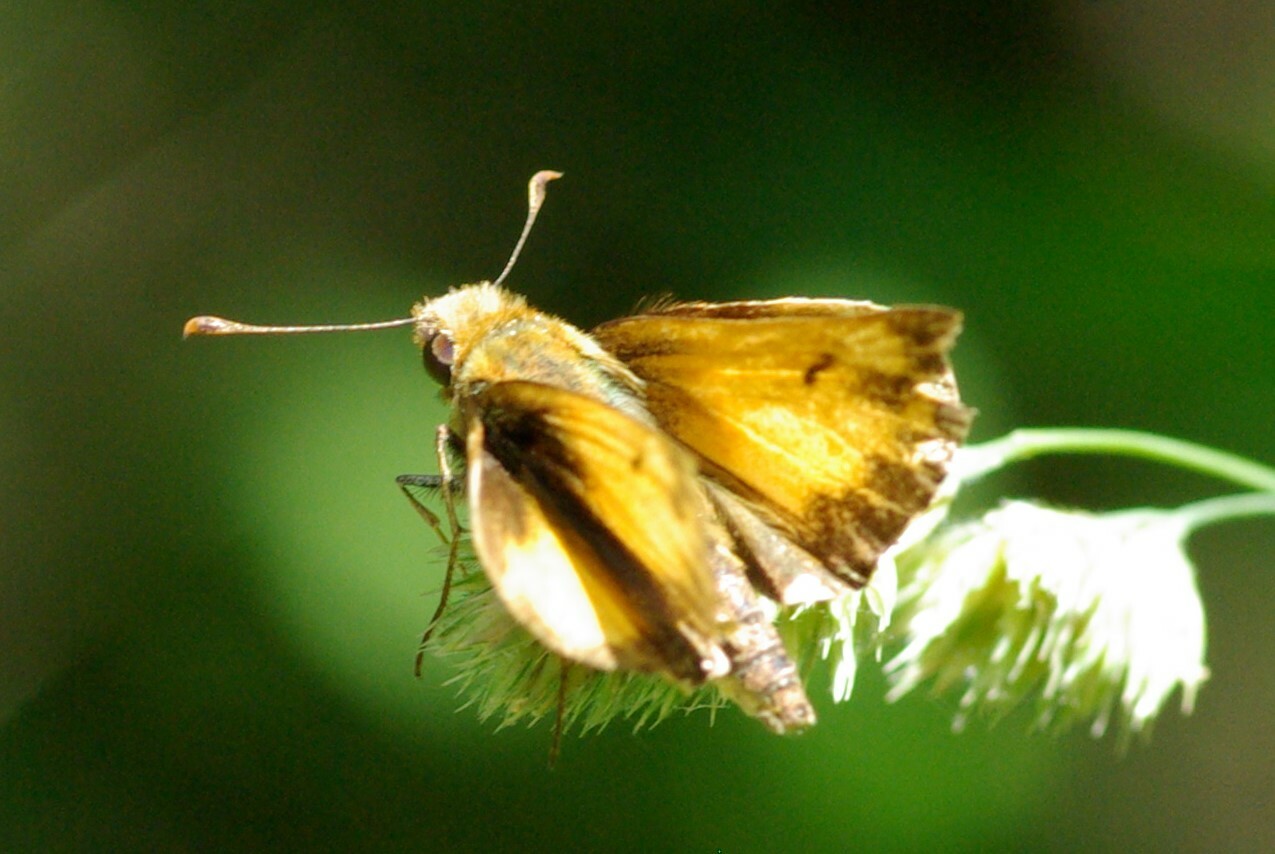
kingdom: Animalia
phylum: Arthropoda
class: Insecta
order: Lepidoptera
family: Hesperiidae
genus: Lon
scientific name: Lon zabulon
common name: Zabulon skipper
